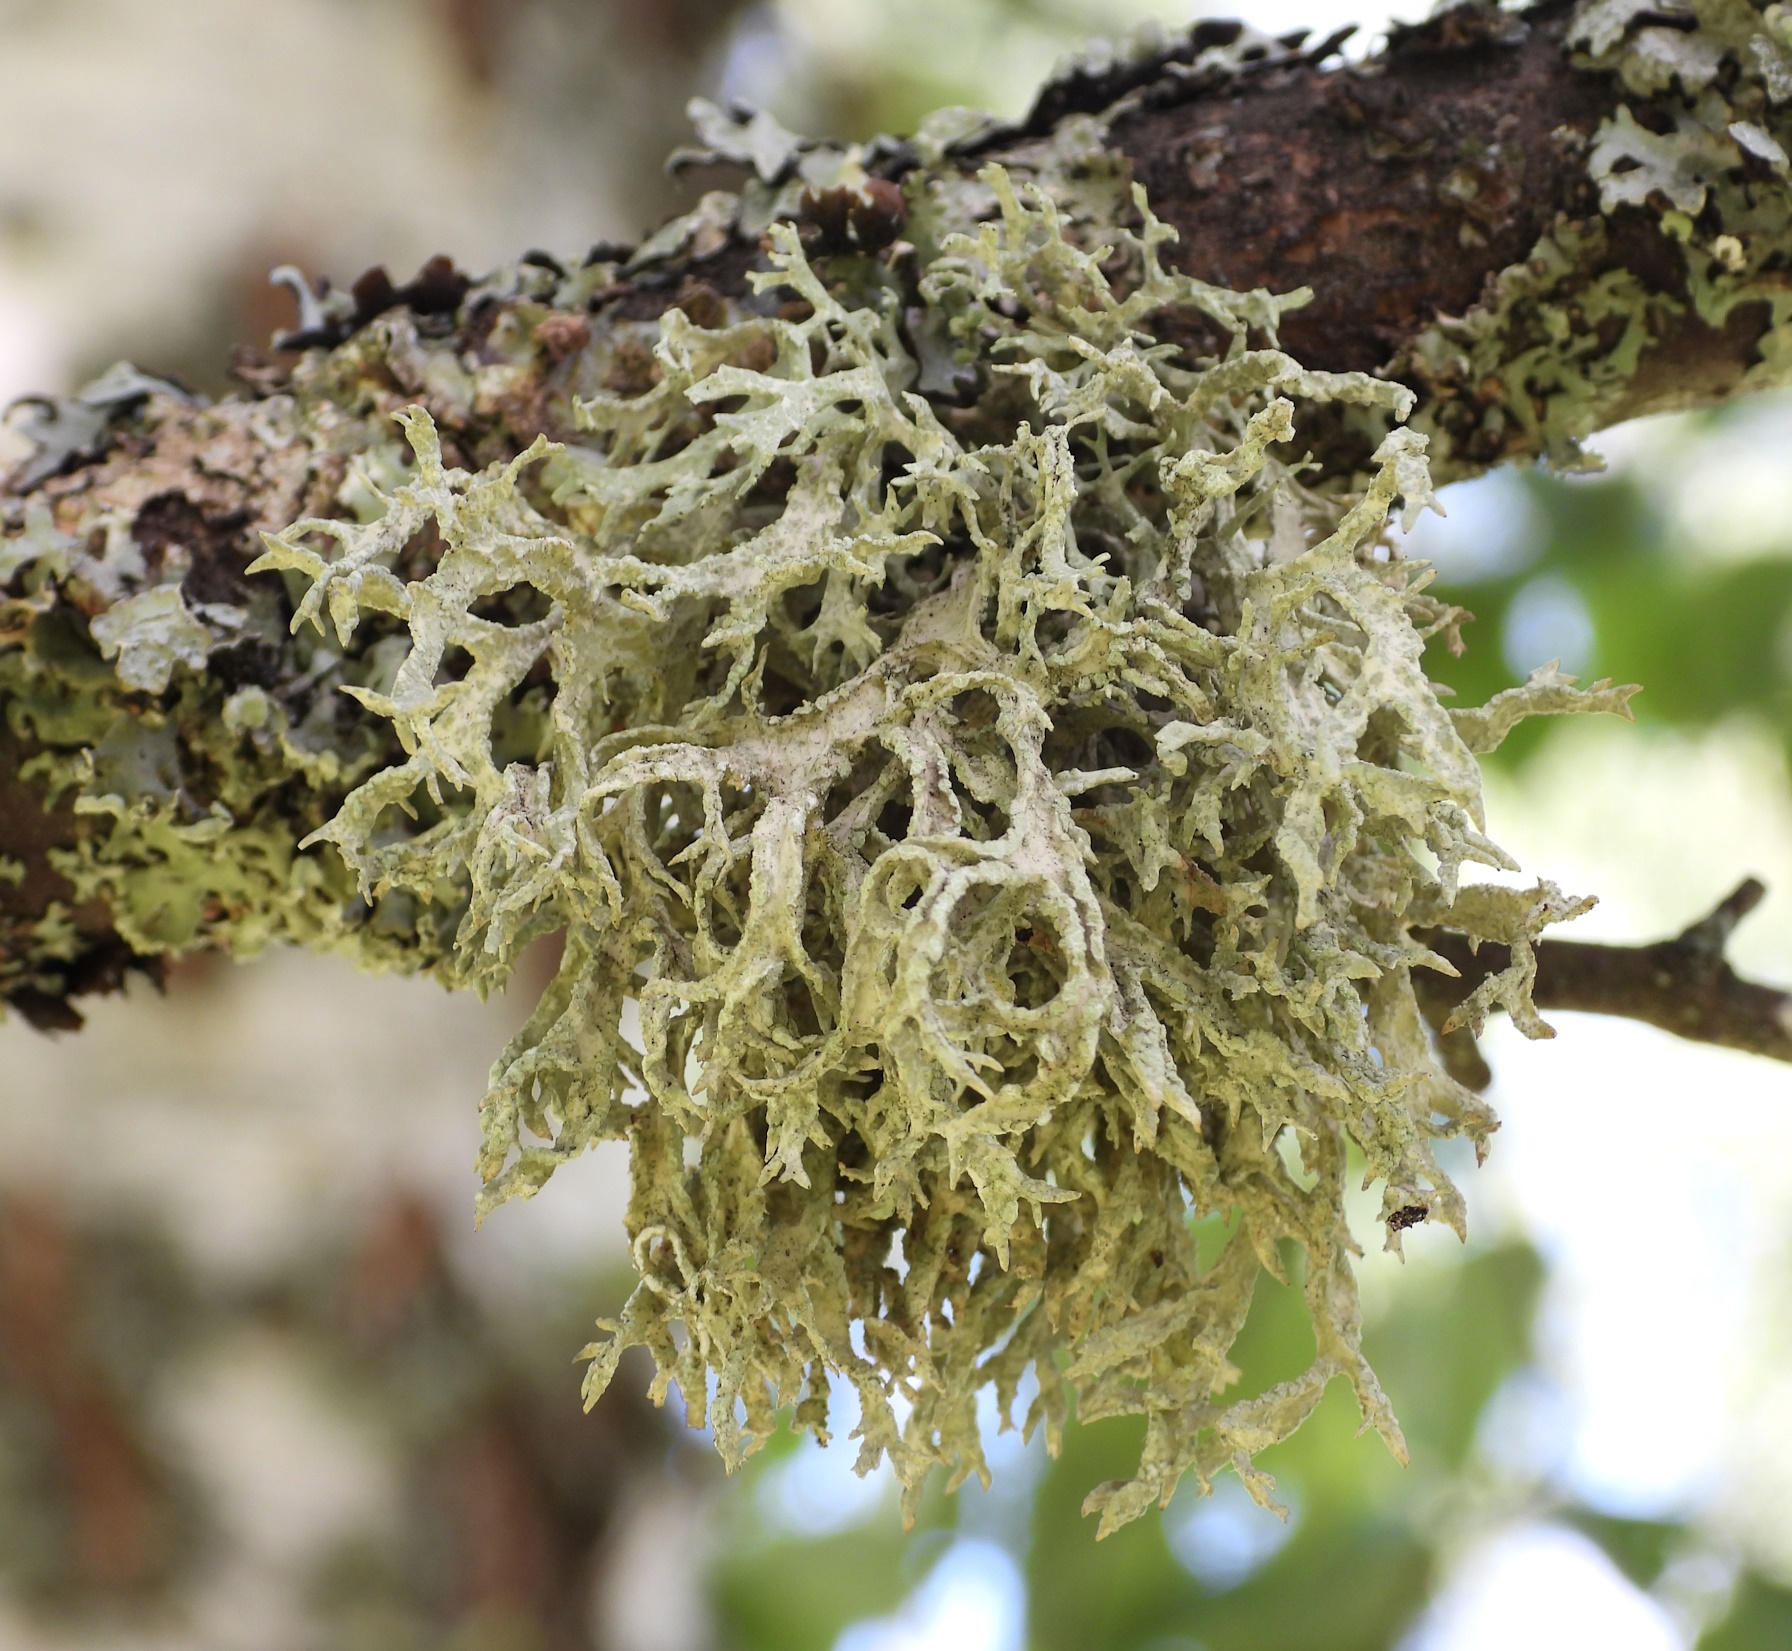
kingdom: Fungi
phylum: Ascomycota
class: Lecanoromycetes
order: Lecanorales
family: Parmeliaceae
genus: Evernia
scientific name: Evernia prunastri
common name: Oak moss
